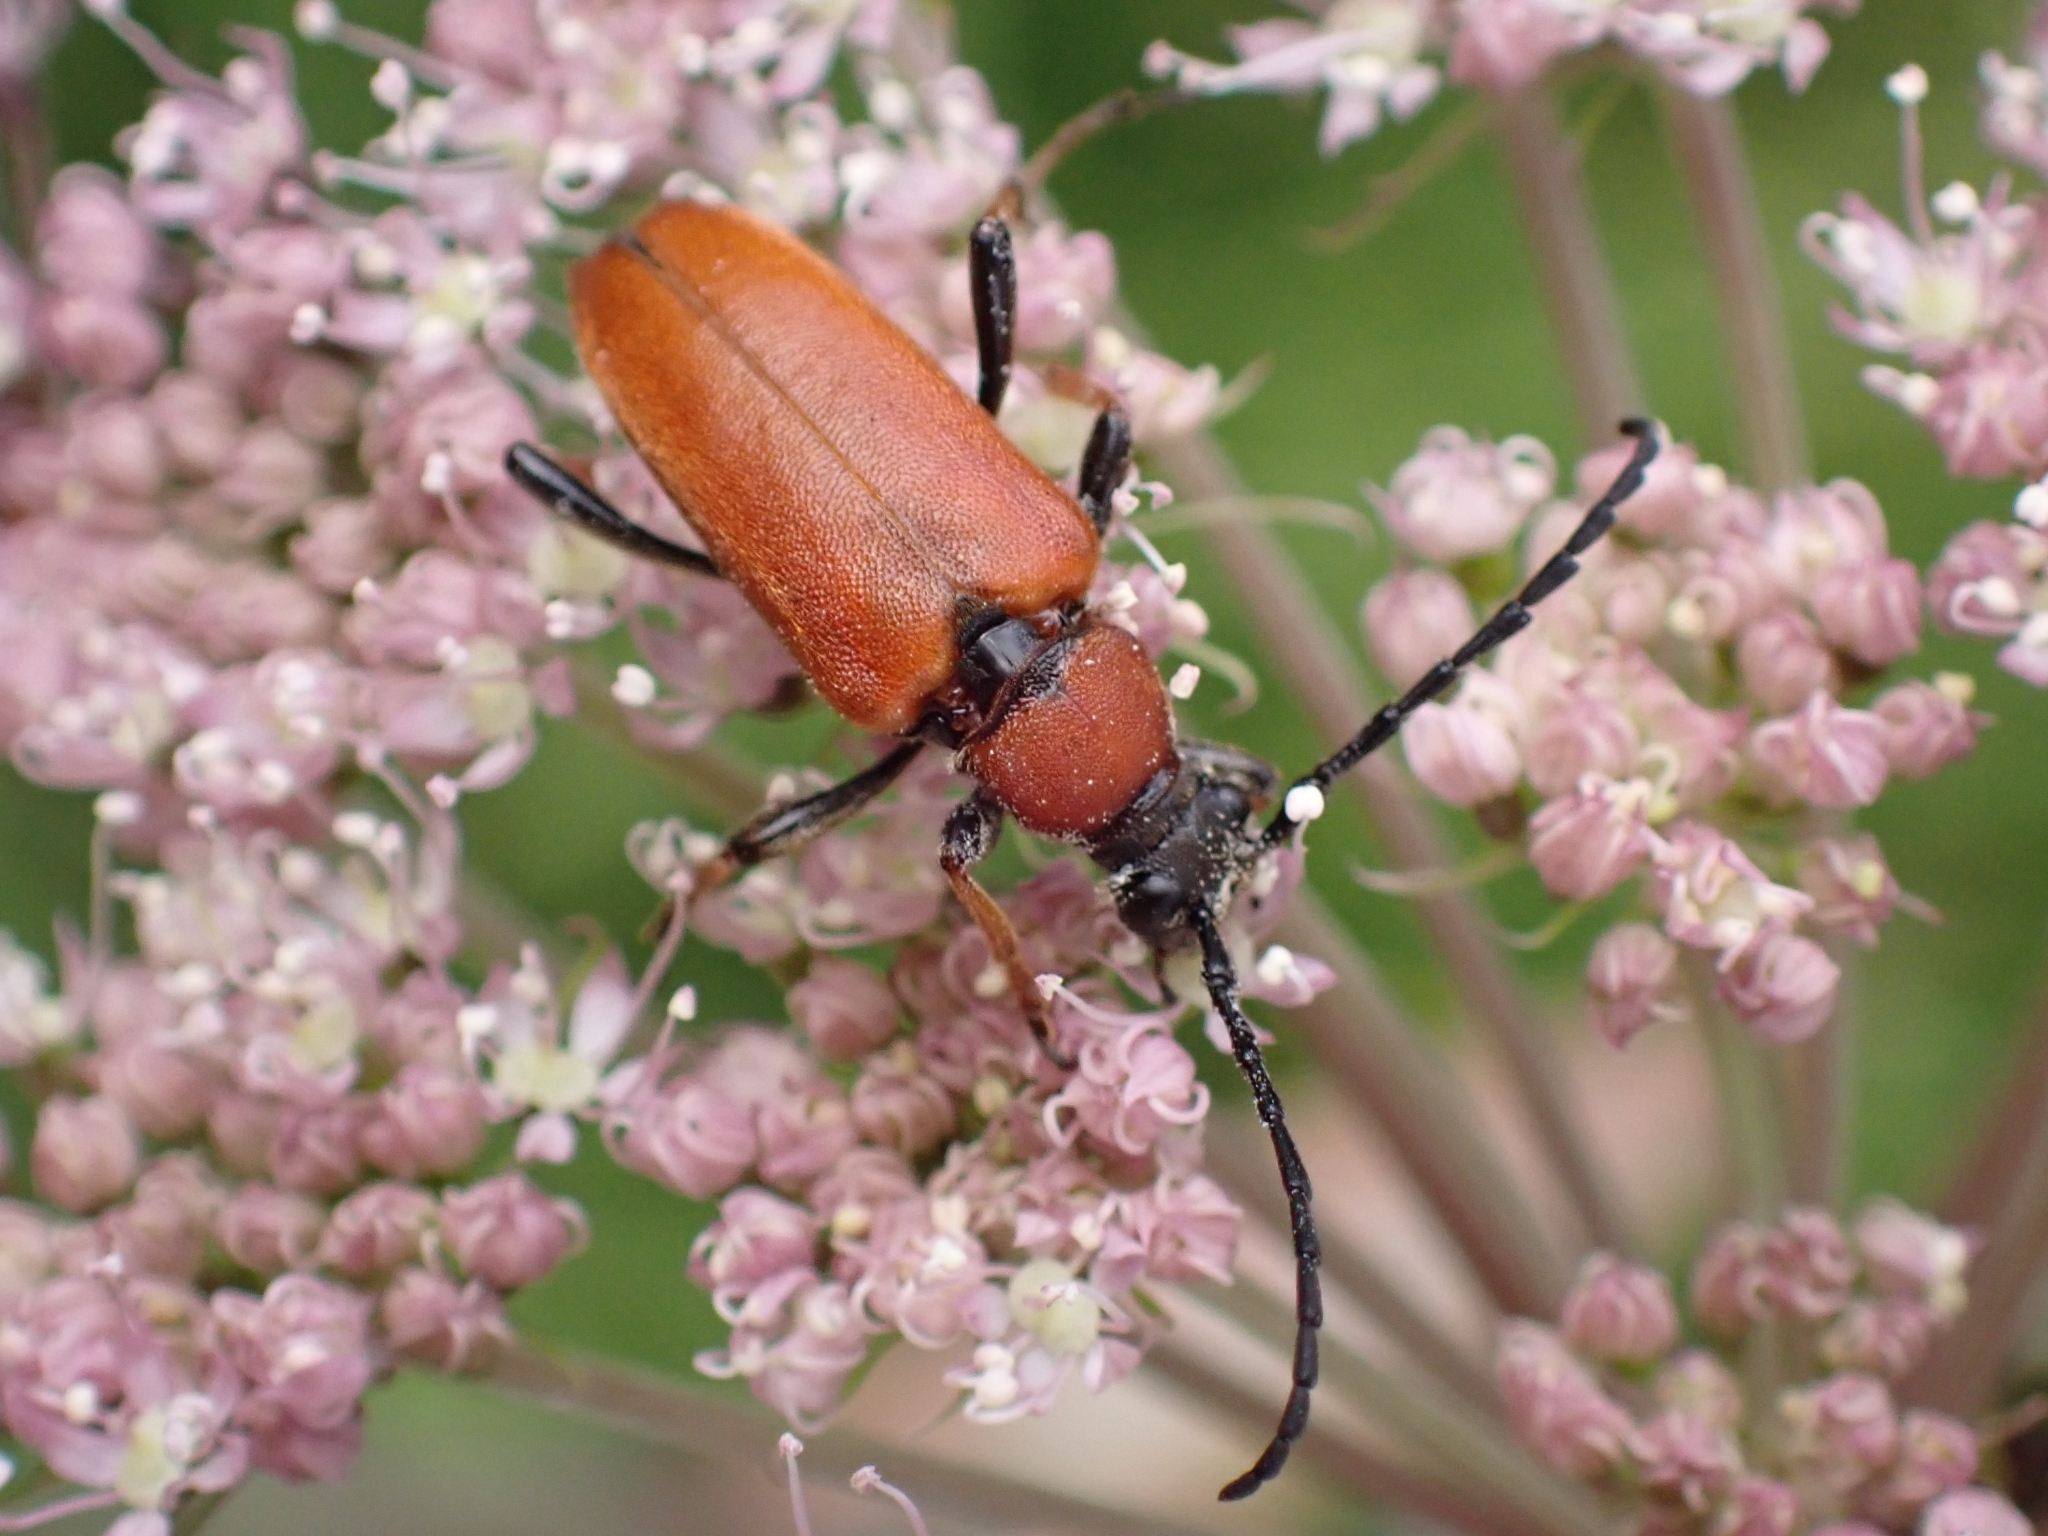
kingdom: Animalia
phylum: Arthropoda
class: Insecta
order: Coleoptera
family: Cerambycidae
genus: Stictoleptura
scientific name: Stictoleptura rubra
